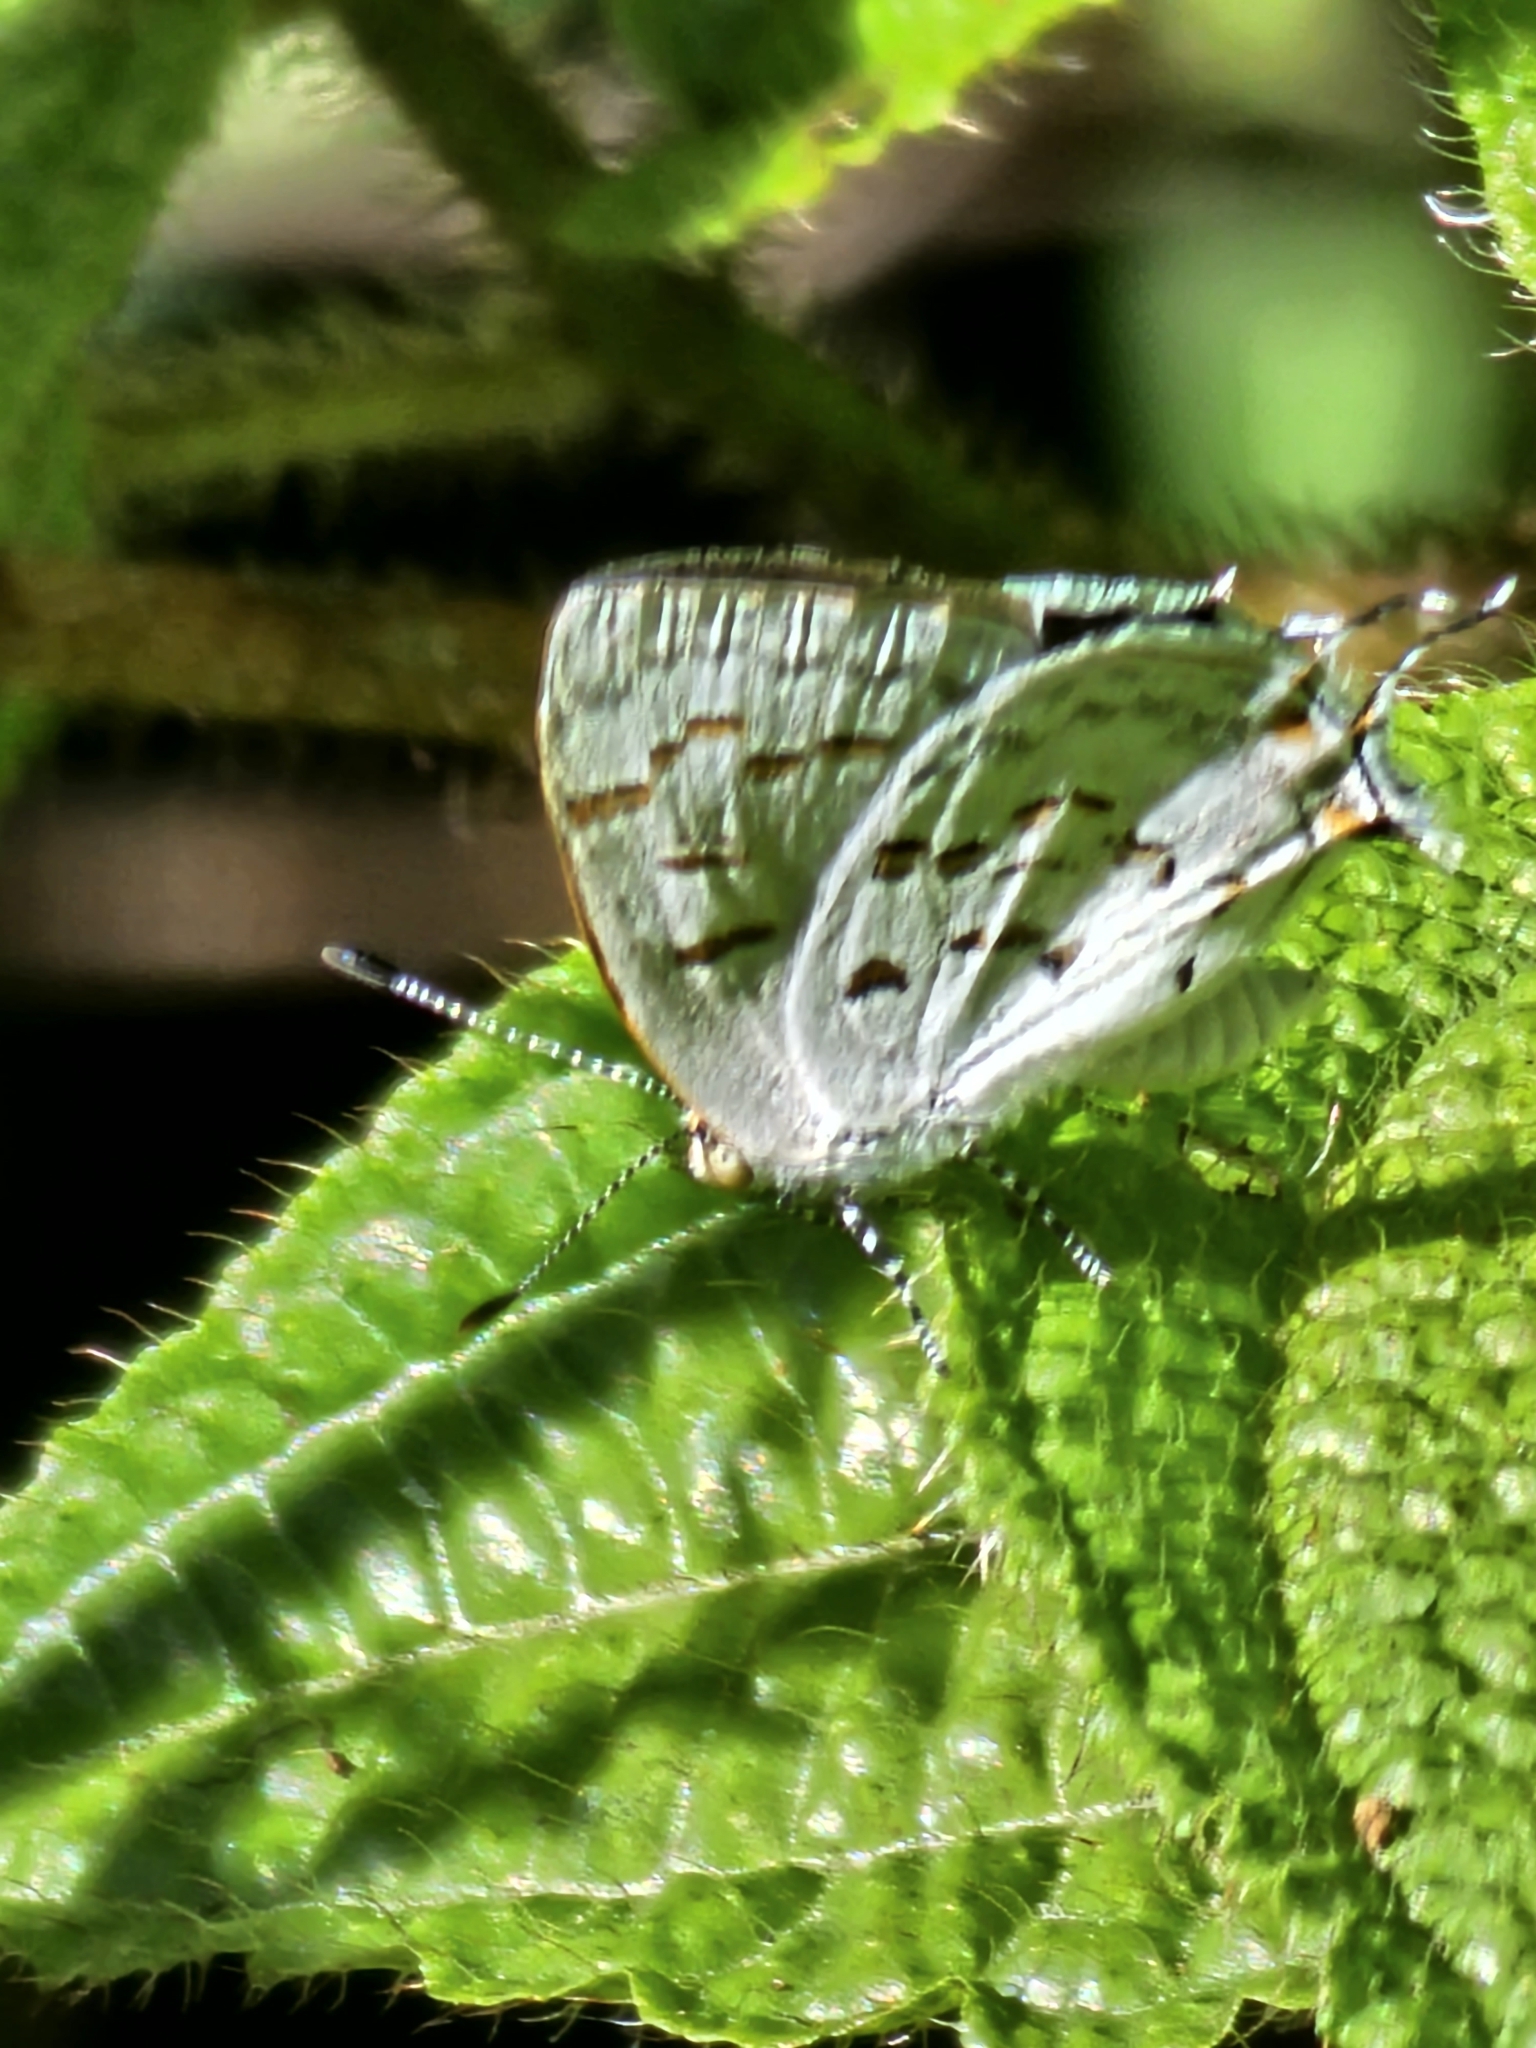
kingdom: Animalia
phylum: Arthropoda
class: Insecta
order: Lepidoptera
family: Lycaenidae
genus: Thecla
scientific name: Thecla una
